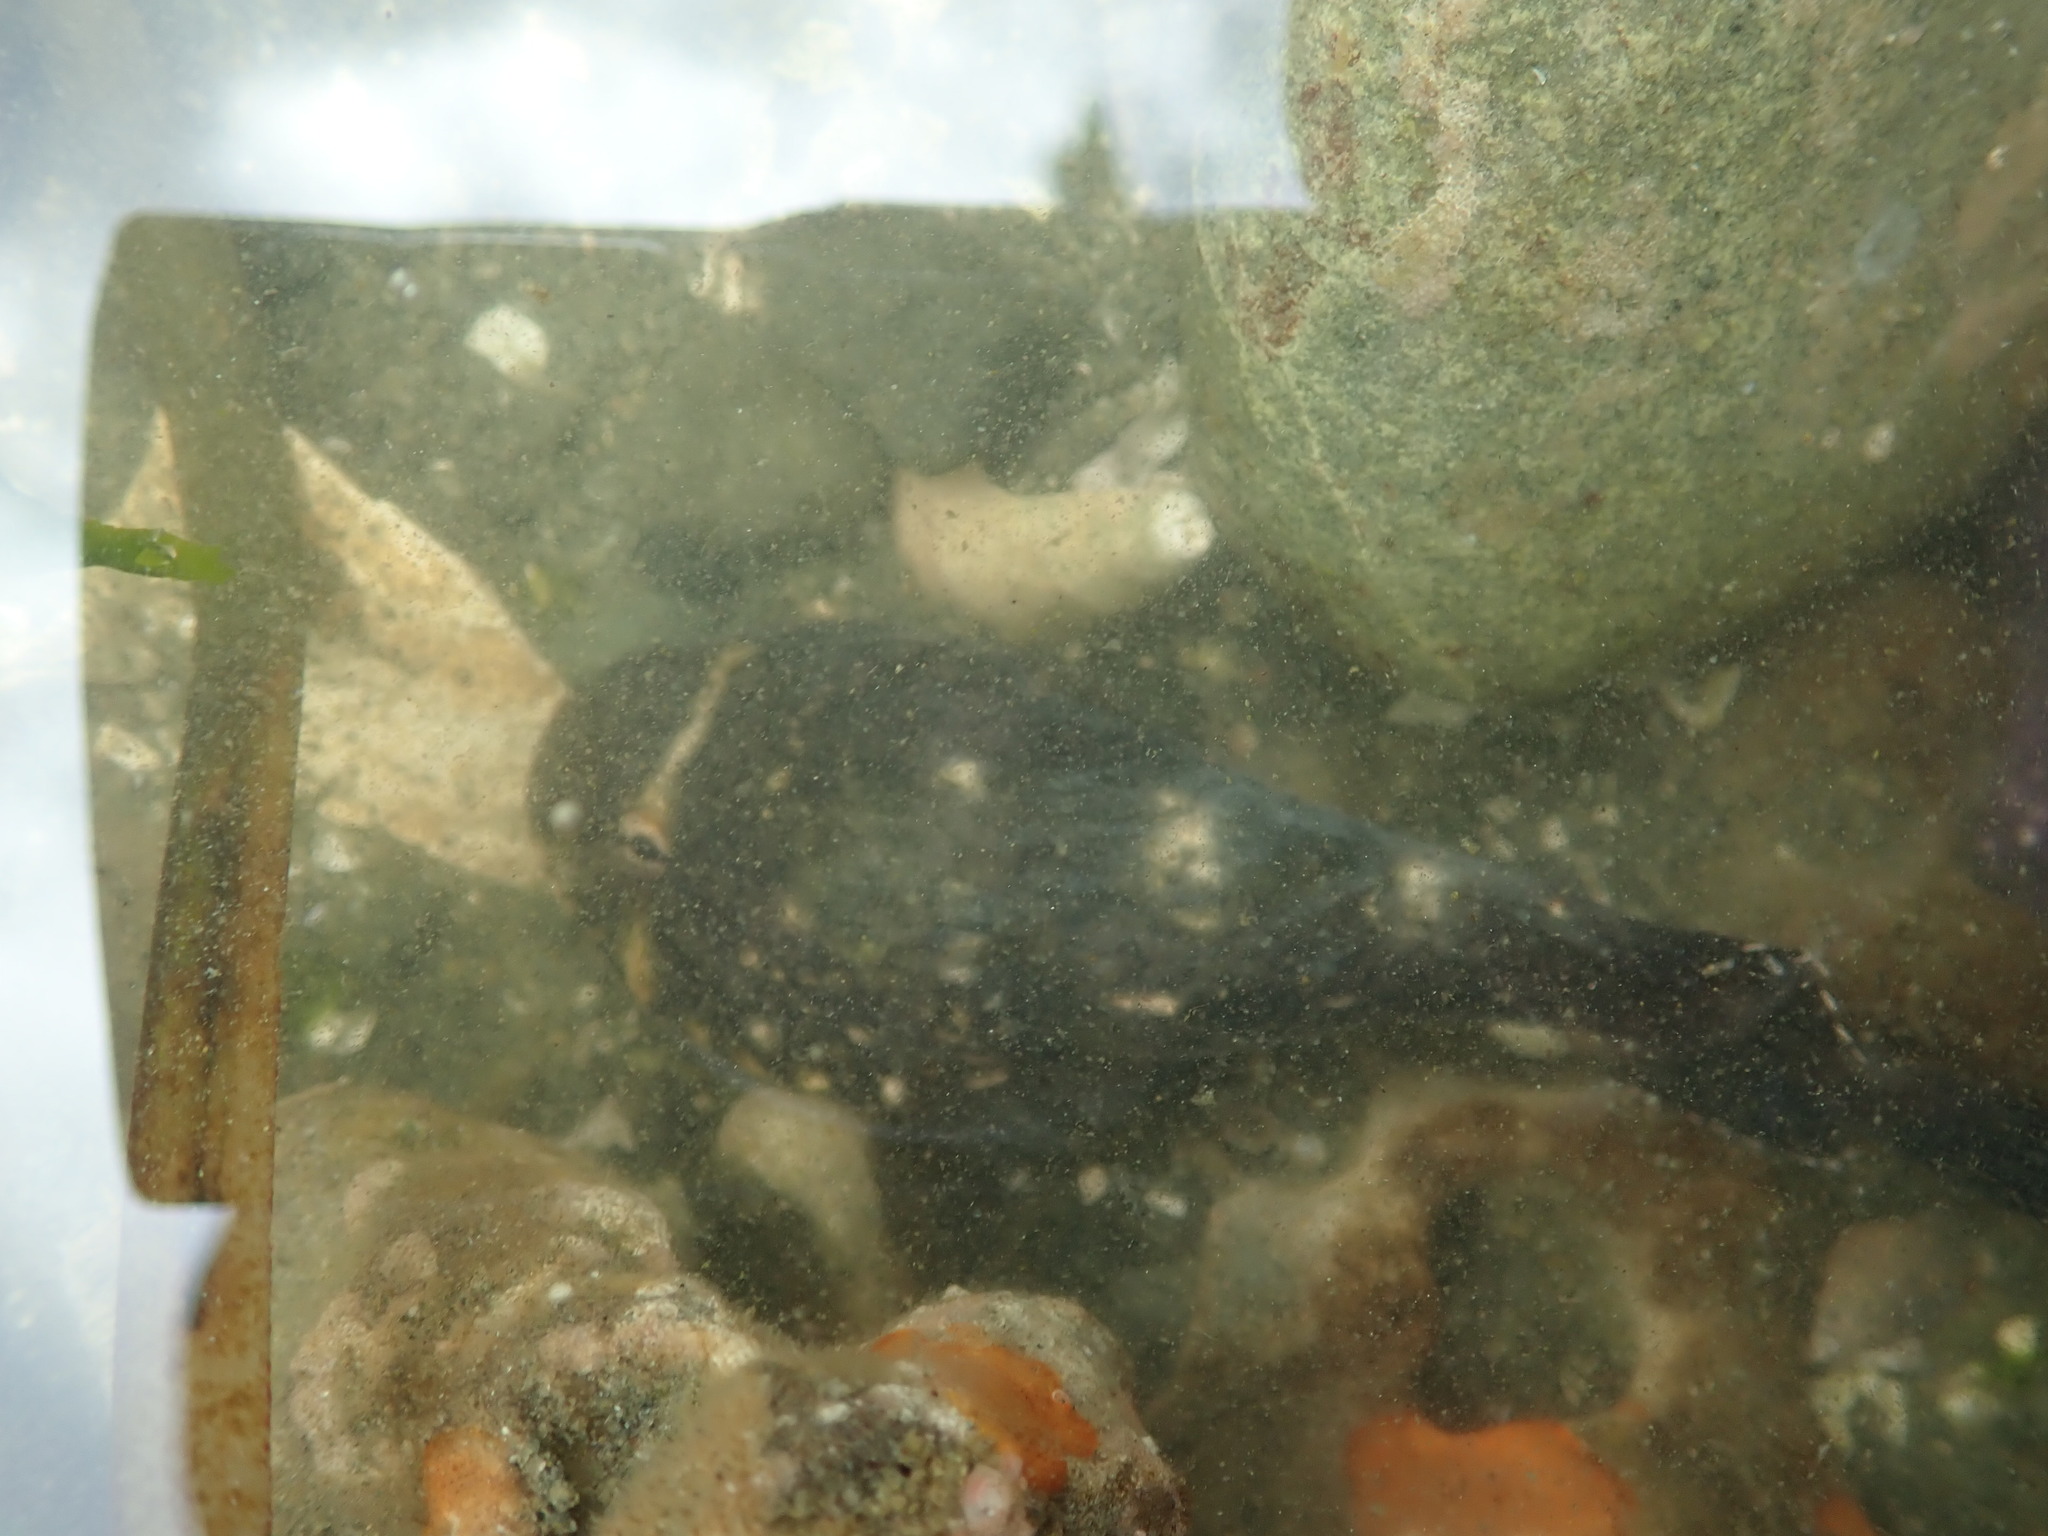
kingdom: Animalia
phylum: Chordata
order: Gobiesociformes
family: Gobiesocidae
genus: Gobiesox
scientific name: Gobiesox maeandricus
